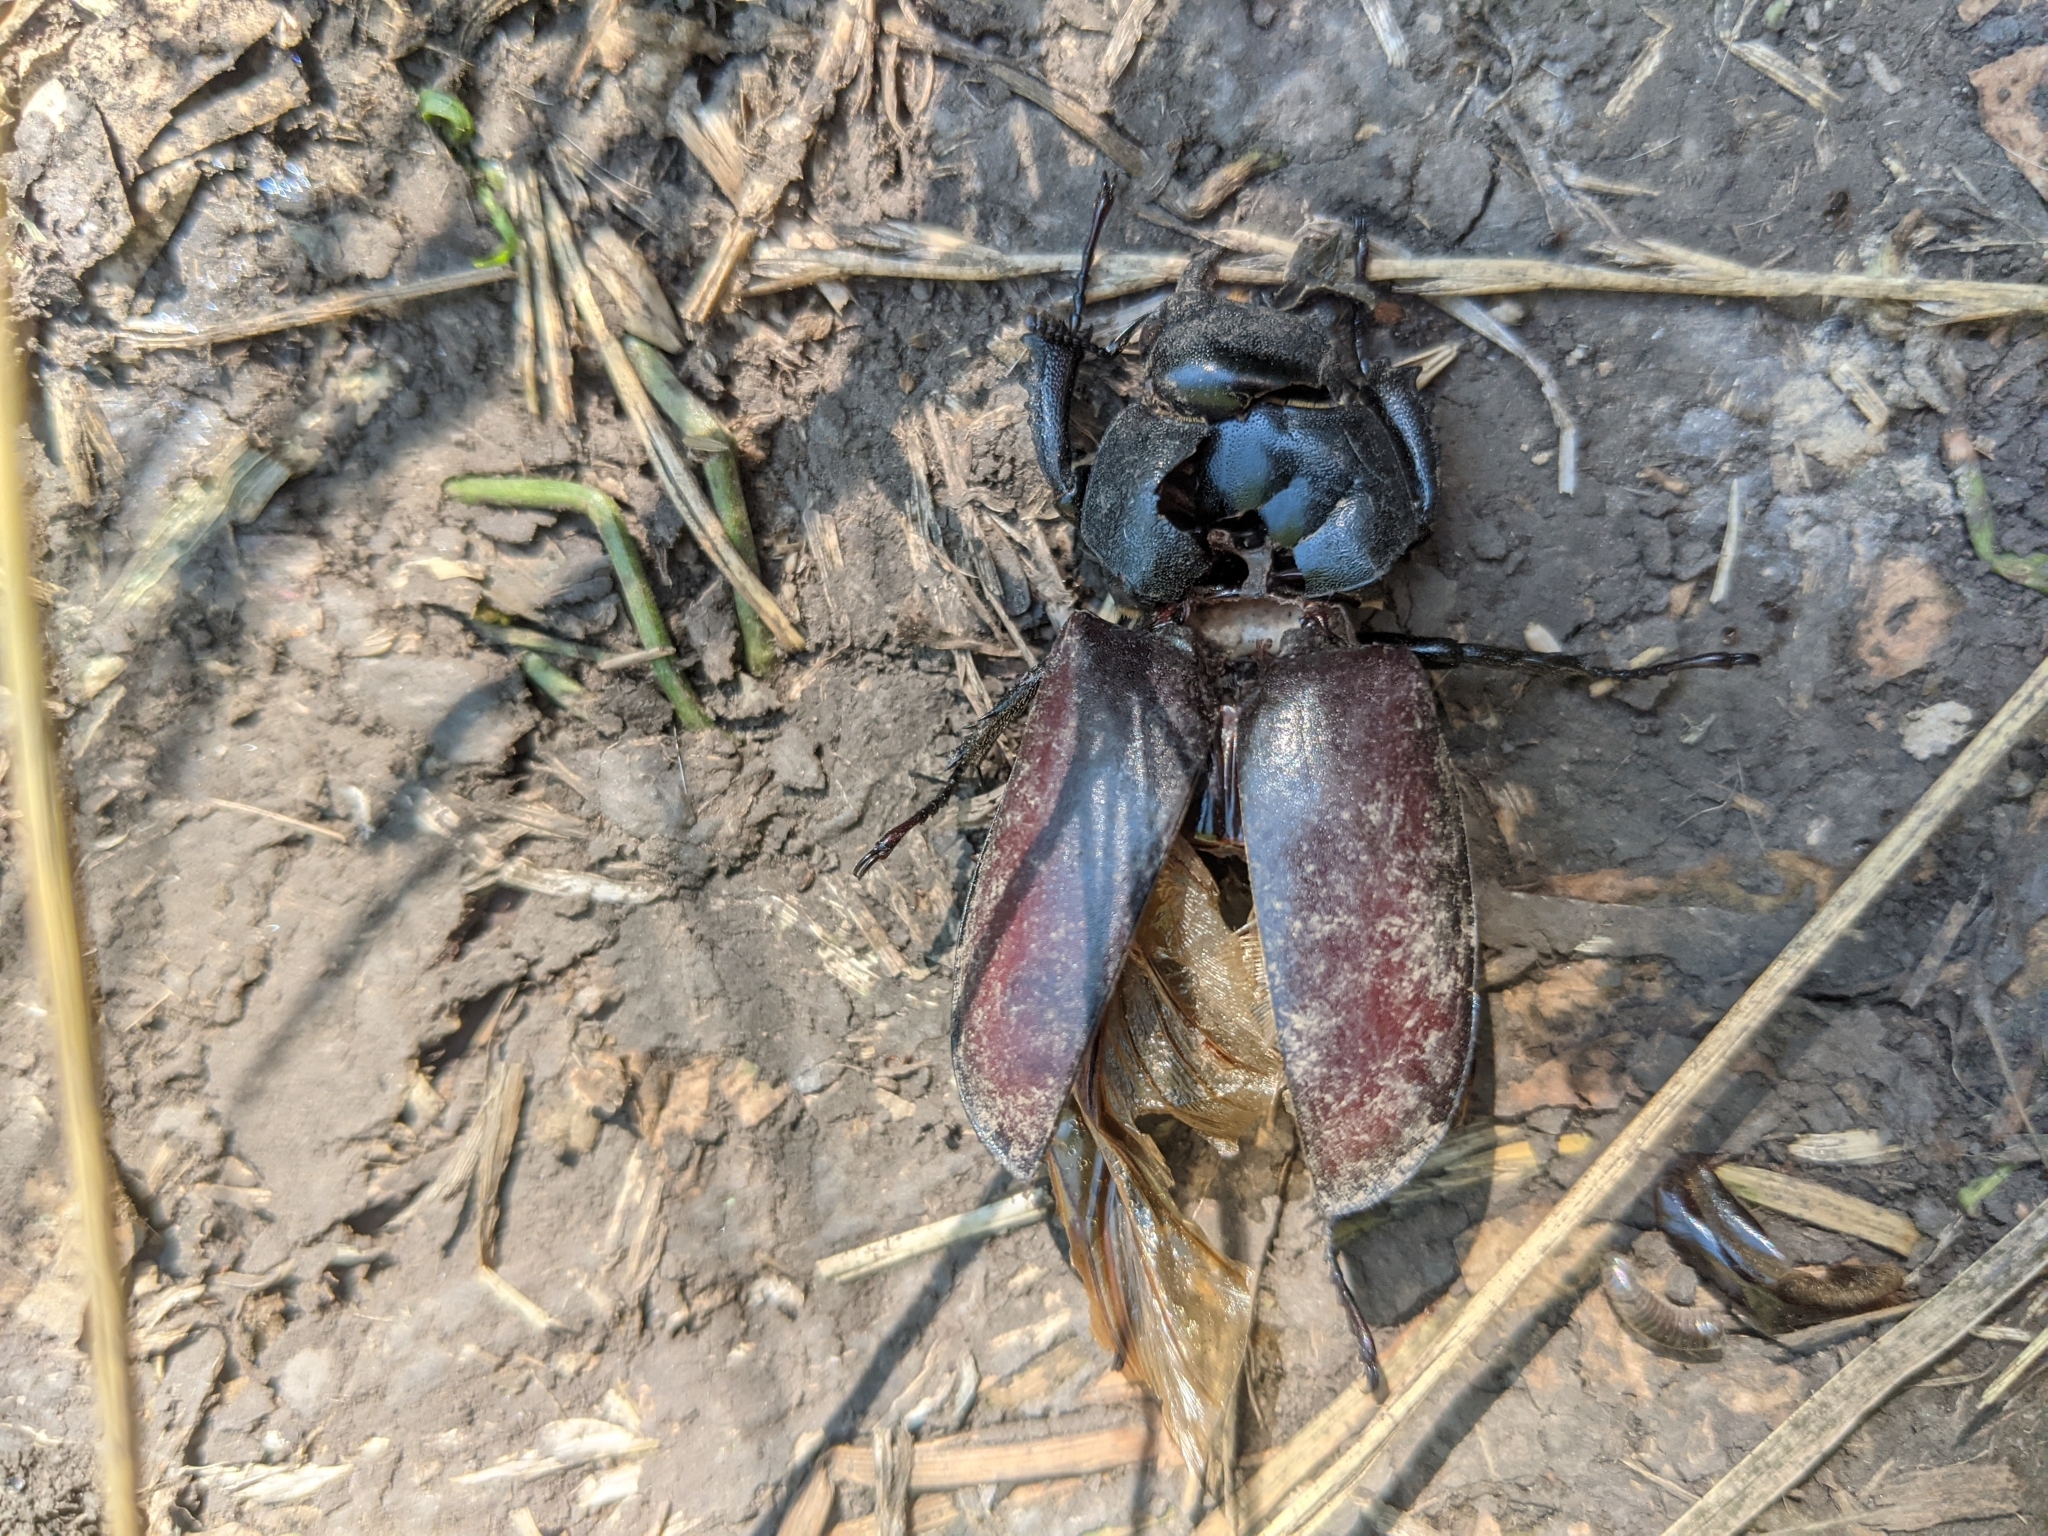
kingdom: Animalia
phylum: Arthropoda
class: Insecta
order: Coleoptera
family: Lucanidae
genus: Lucanus
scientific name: Lucanus cervus
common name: Stag beetle
